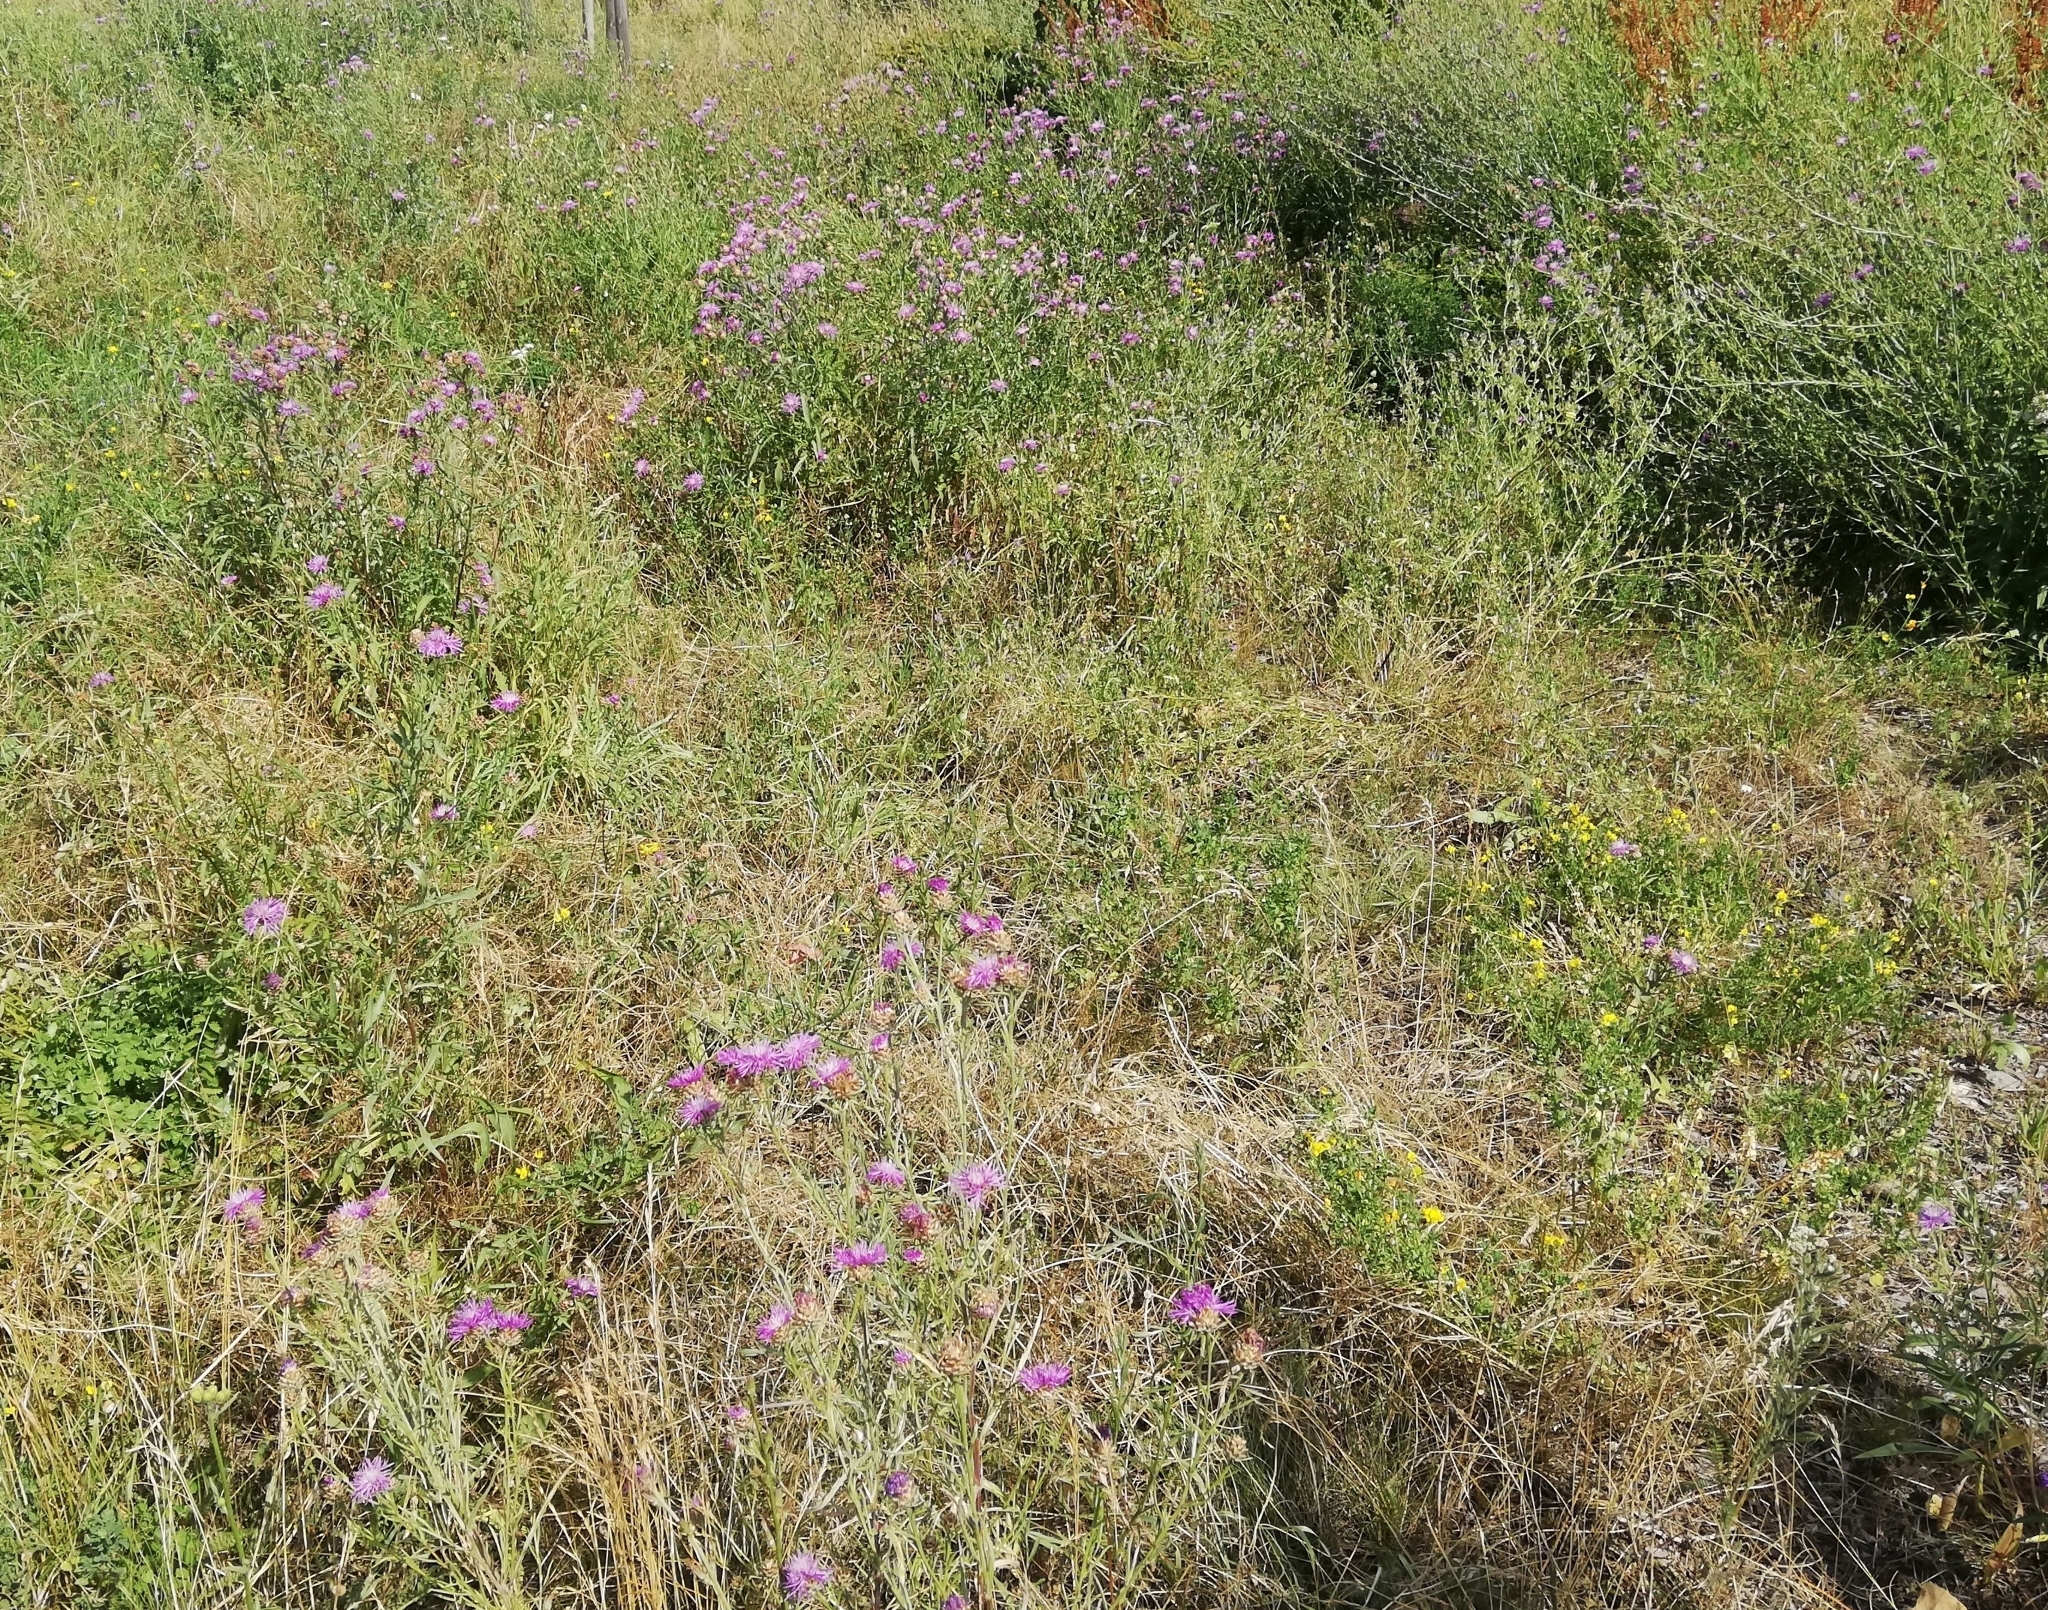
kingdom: Plantae
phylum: Tracheophyta
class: Magnoliopsida
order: Asterales
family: Asteraceae
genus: Centaurea
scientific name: Centaurea jacea
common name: Brown knapweed
